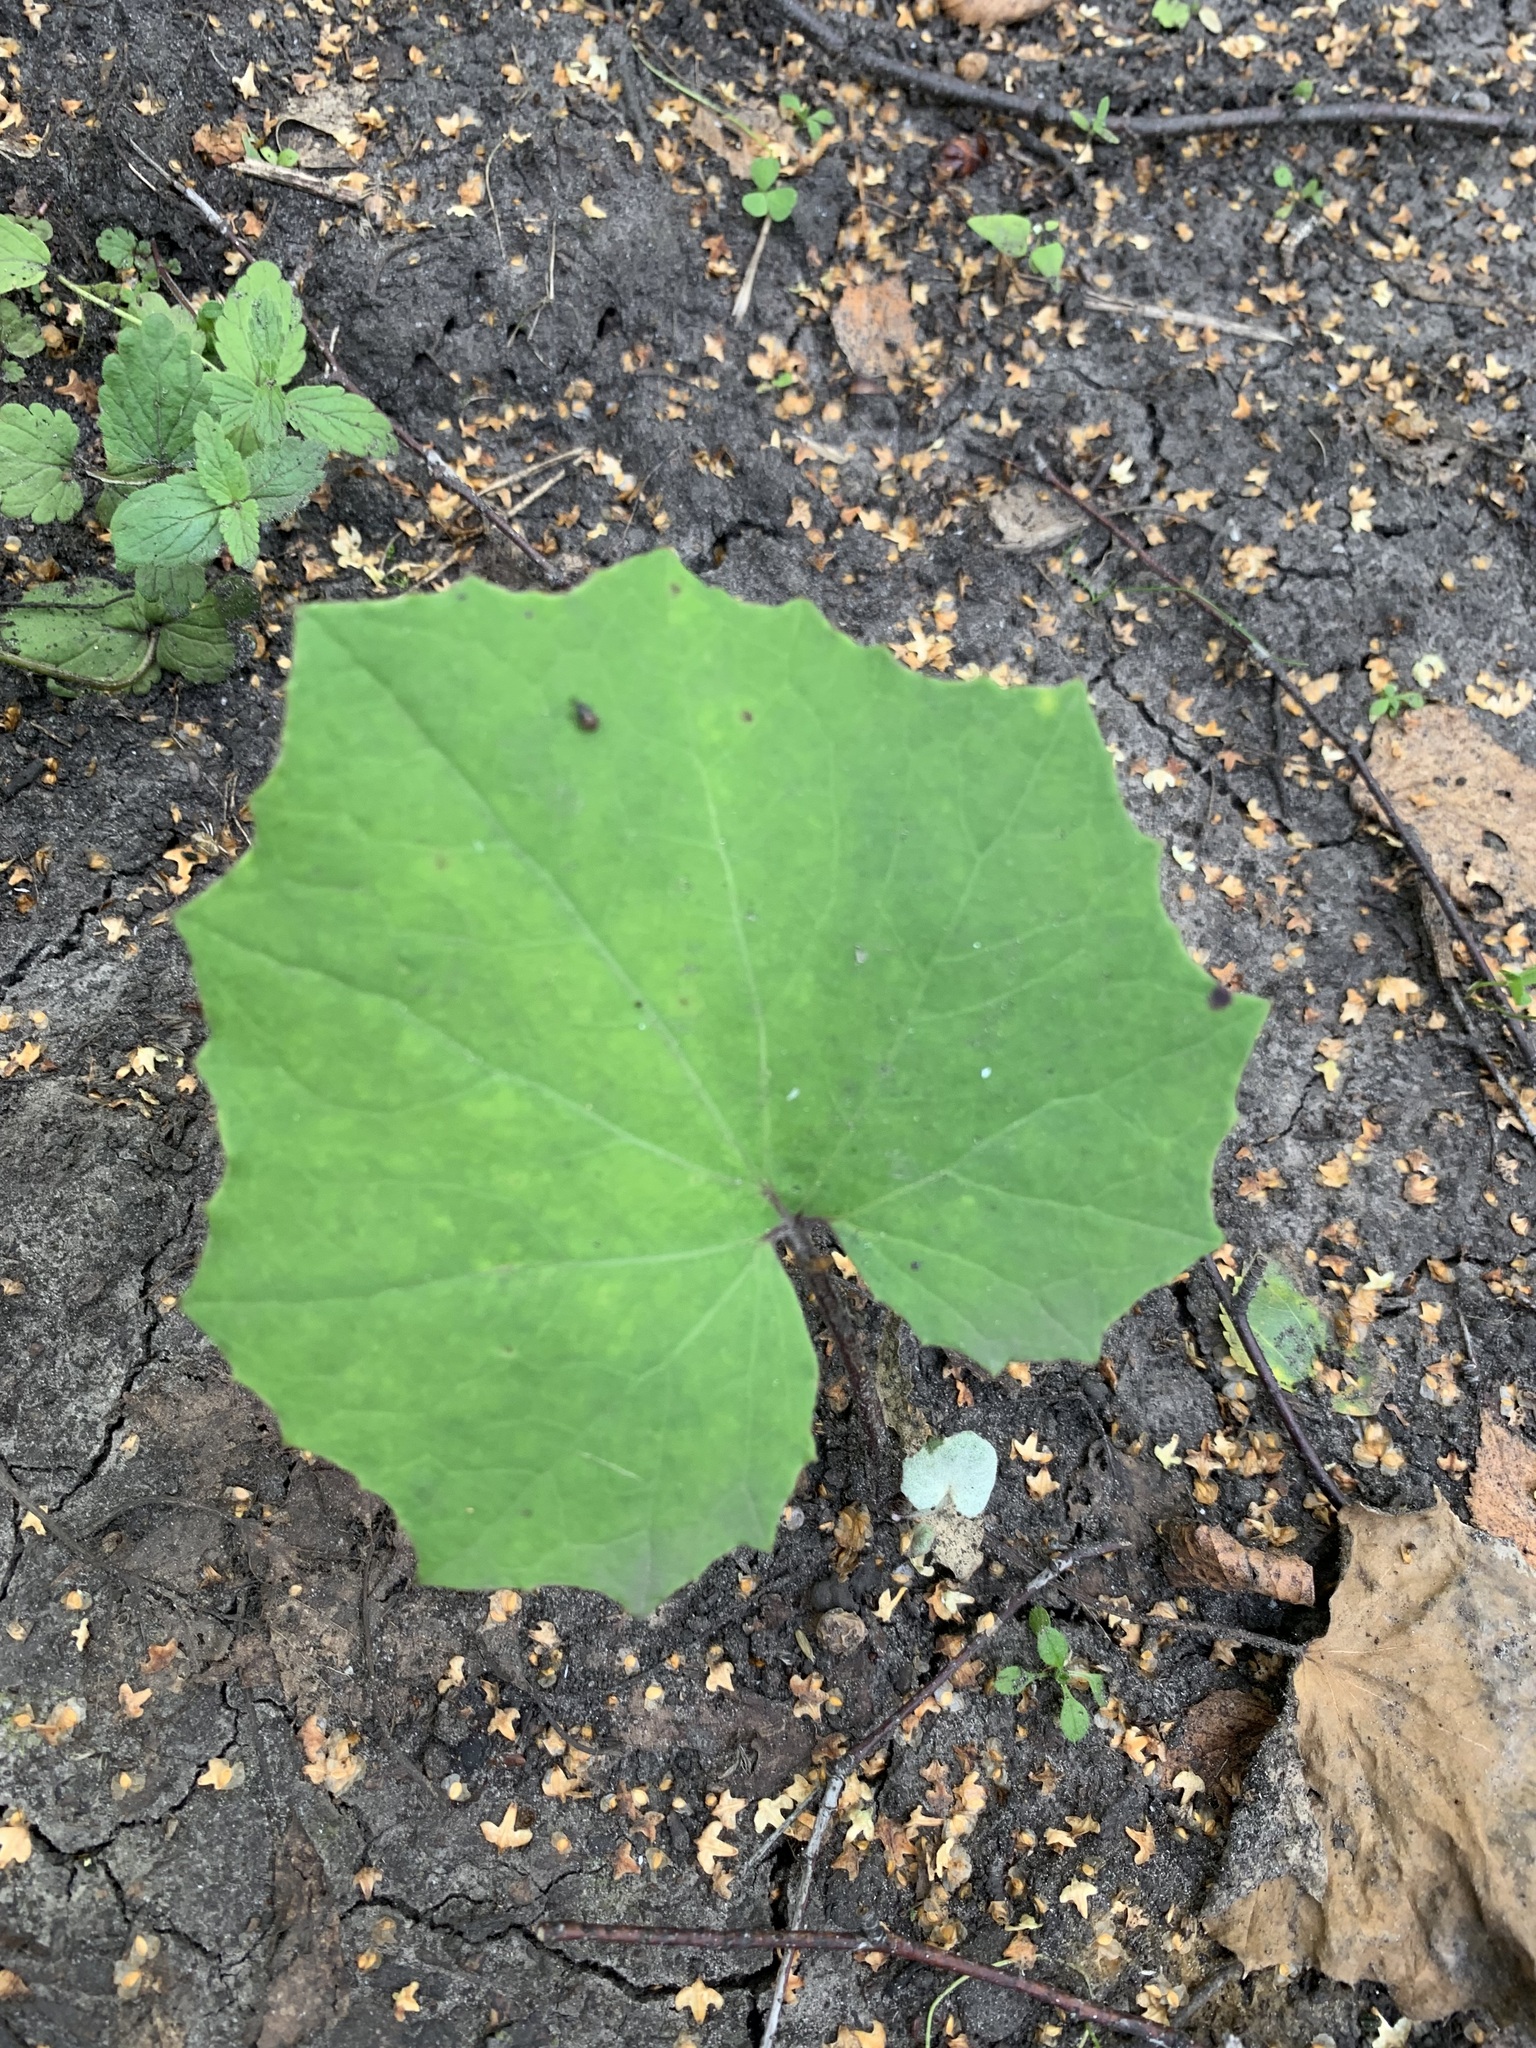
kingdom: Plantae
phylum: Tracheophyta
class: Magnoliopsida
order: Asterales
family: Asteraceae
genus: Tussilago
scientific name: Tussilago farfara
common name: Coltsfoot
